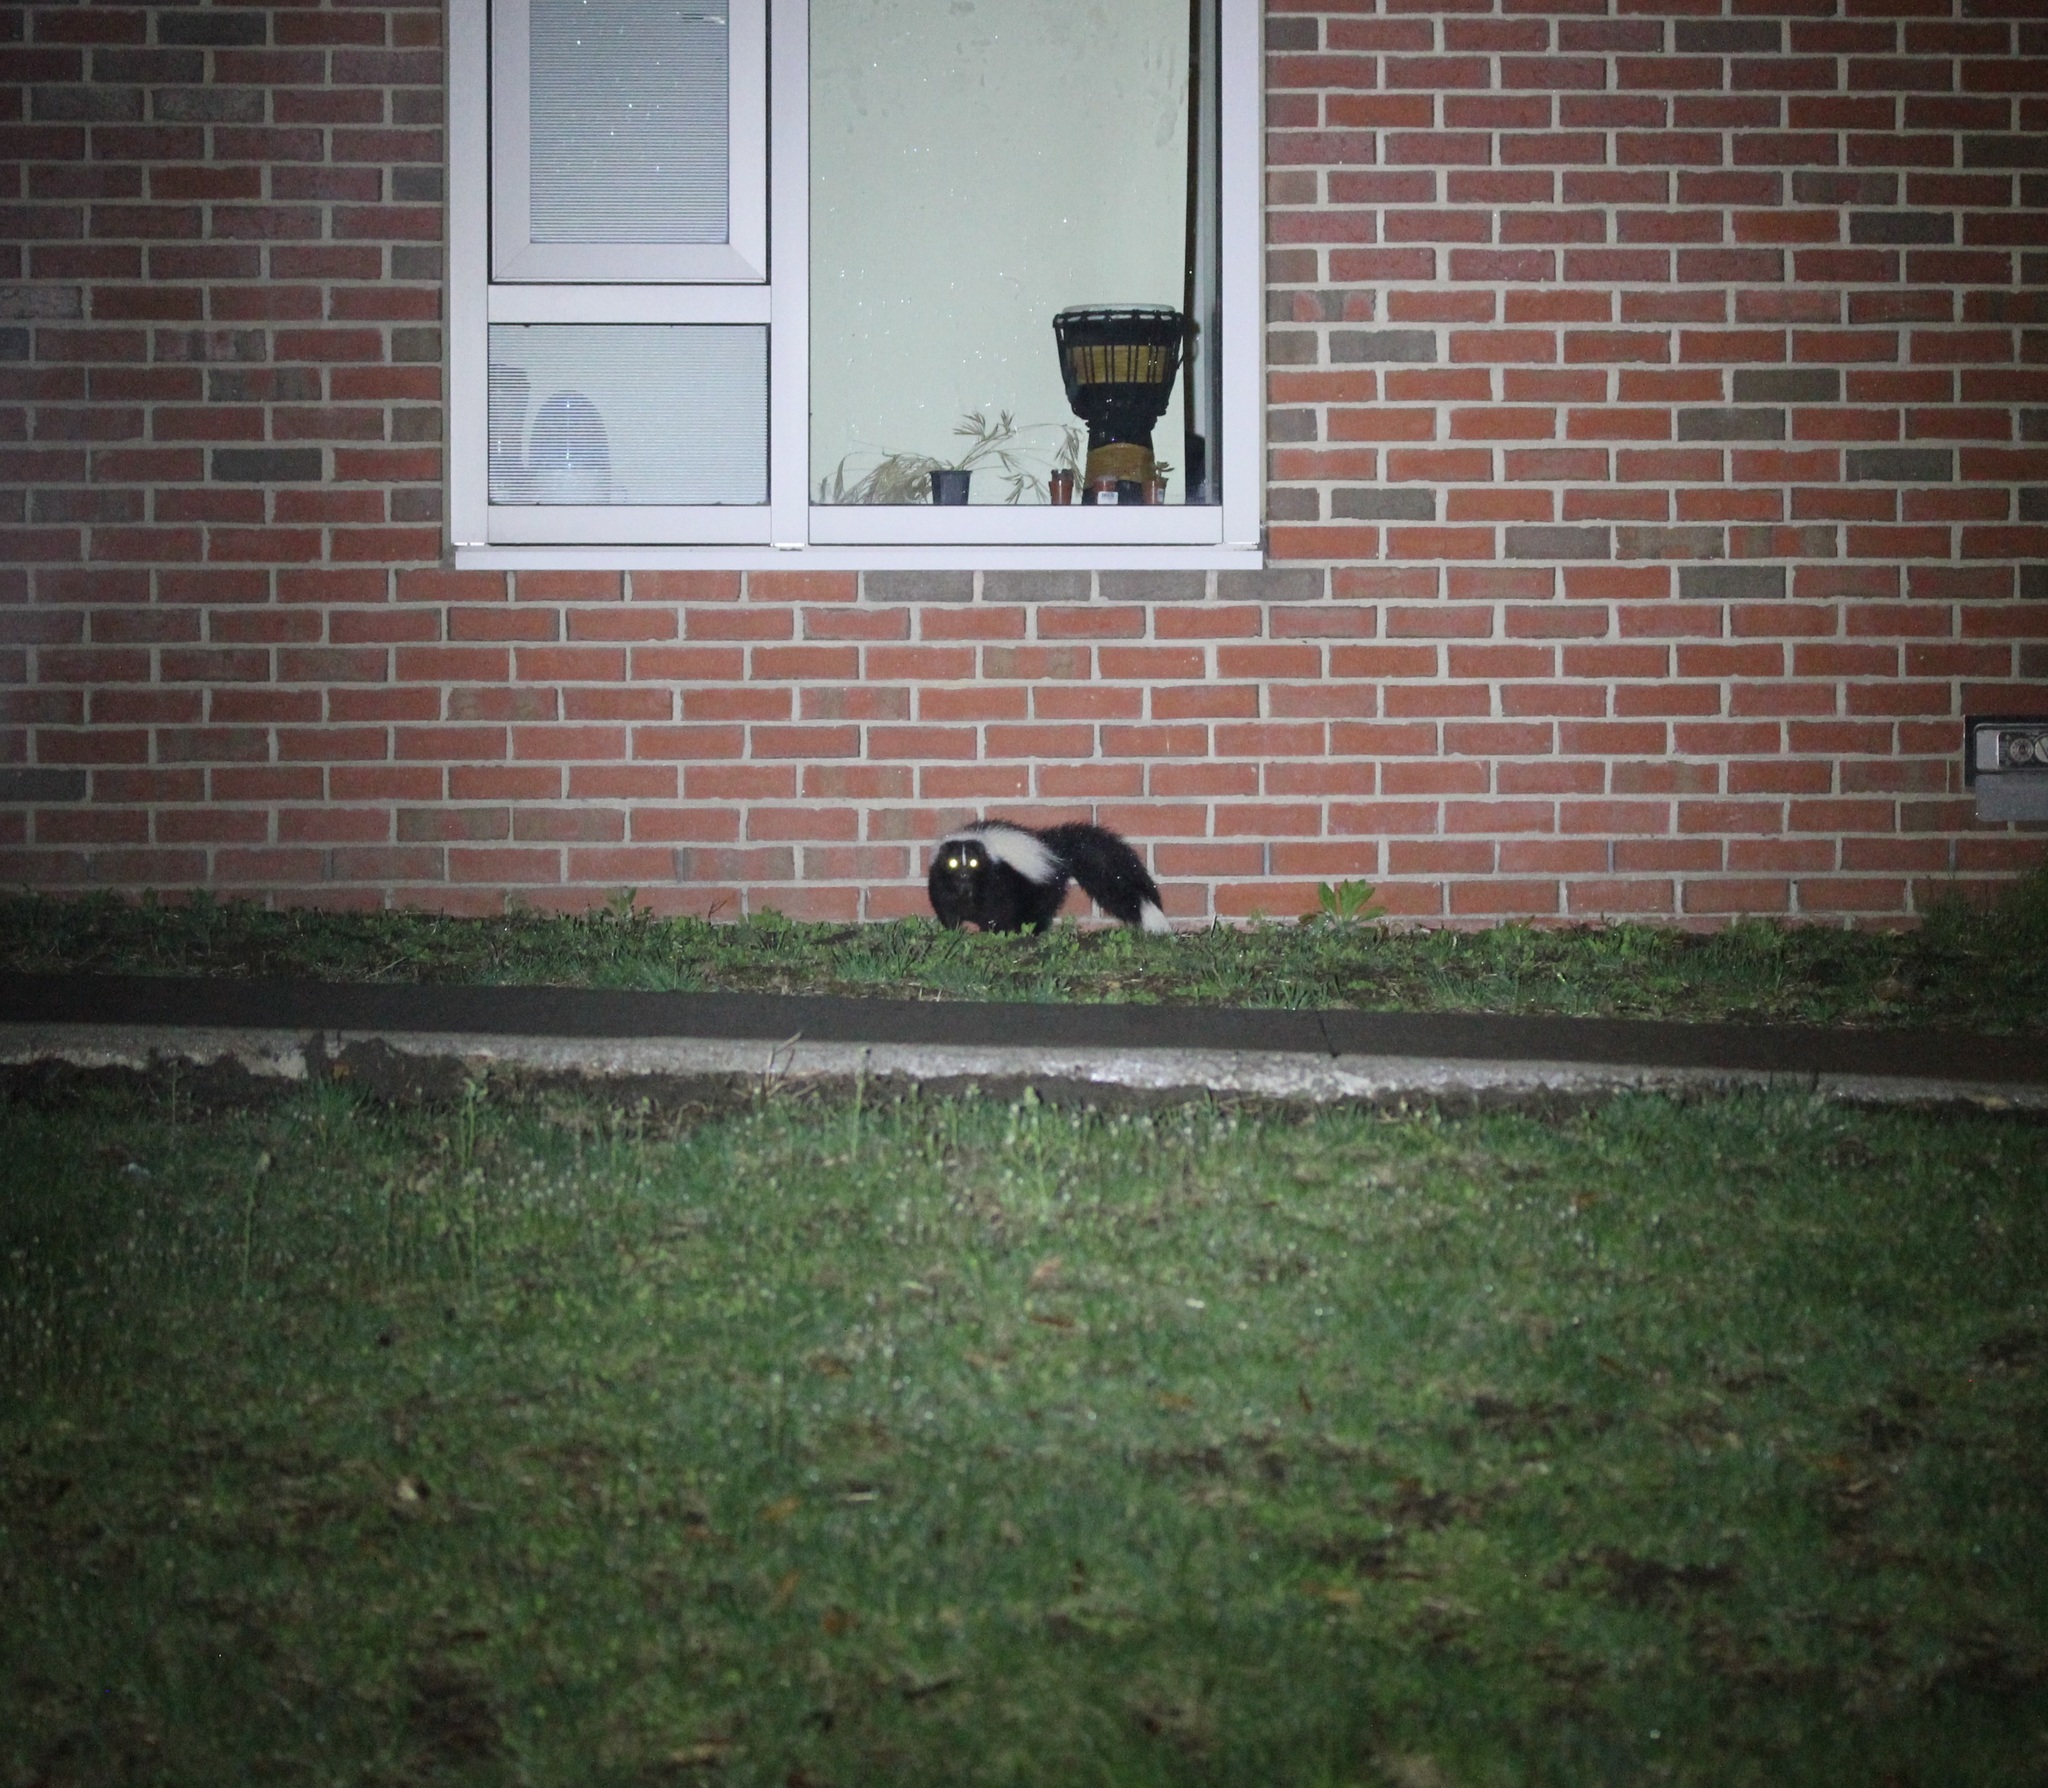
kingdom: Animalia
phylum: Chordata
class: Mammalia
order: Carnivora
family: Mephitidae
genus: Mephitis
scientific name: Mephitis mephitis
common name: Striped skunk
